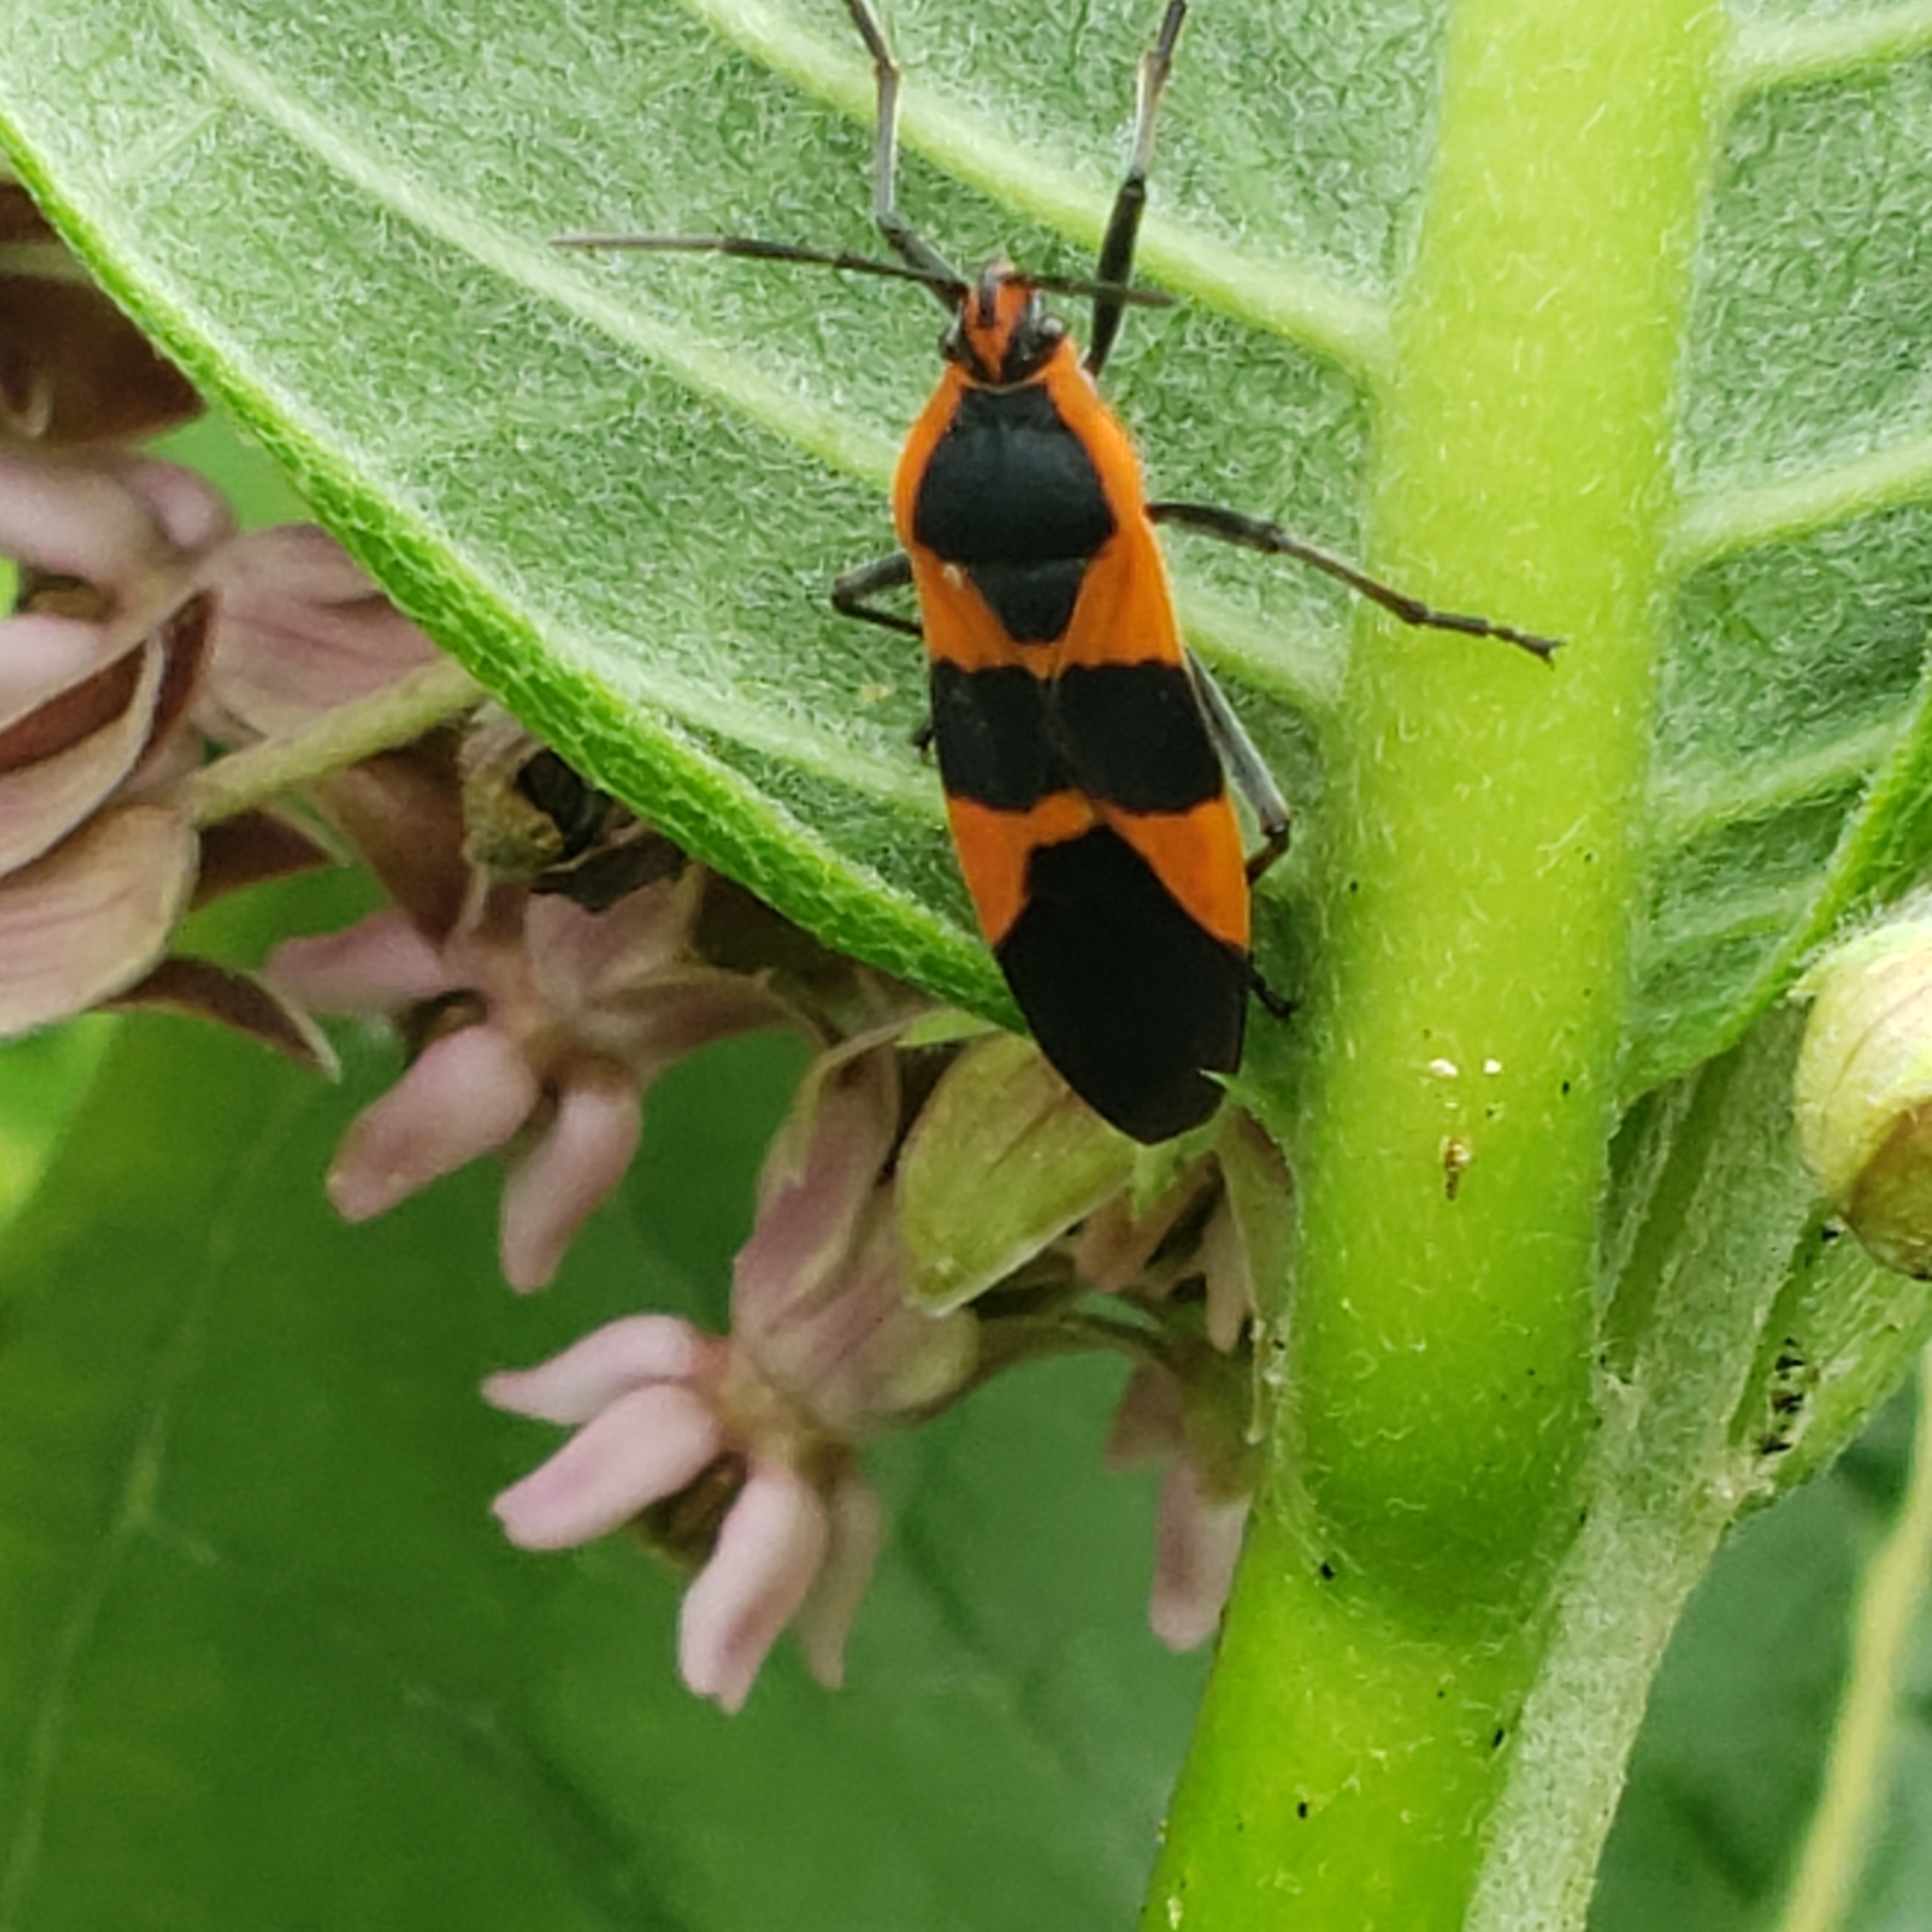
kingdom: Animalia
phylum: Arthropoda
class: Insecta
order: Hemiptera
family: Lygaeidae
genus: Oncopeltus
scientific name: Oncopeltus fasciatus
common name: Large milkweed bug
